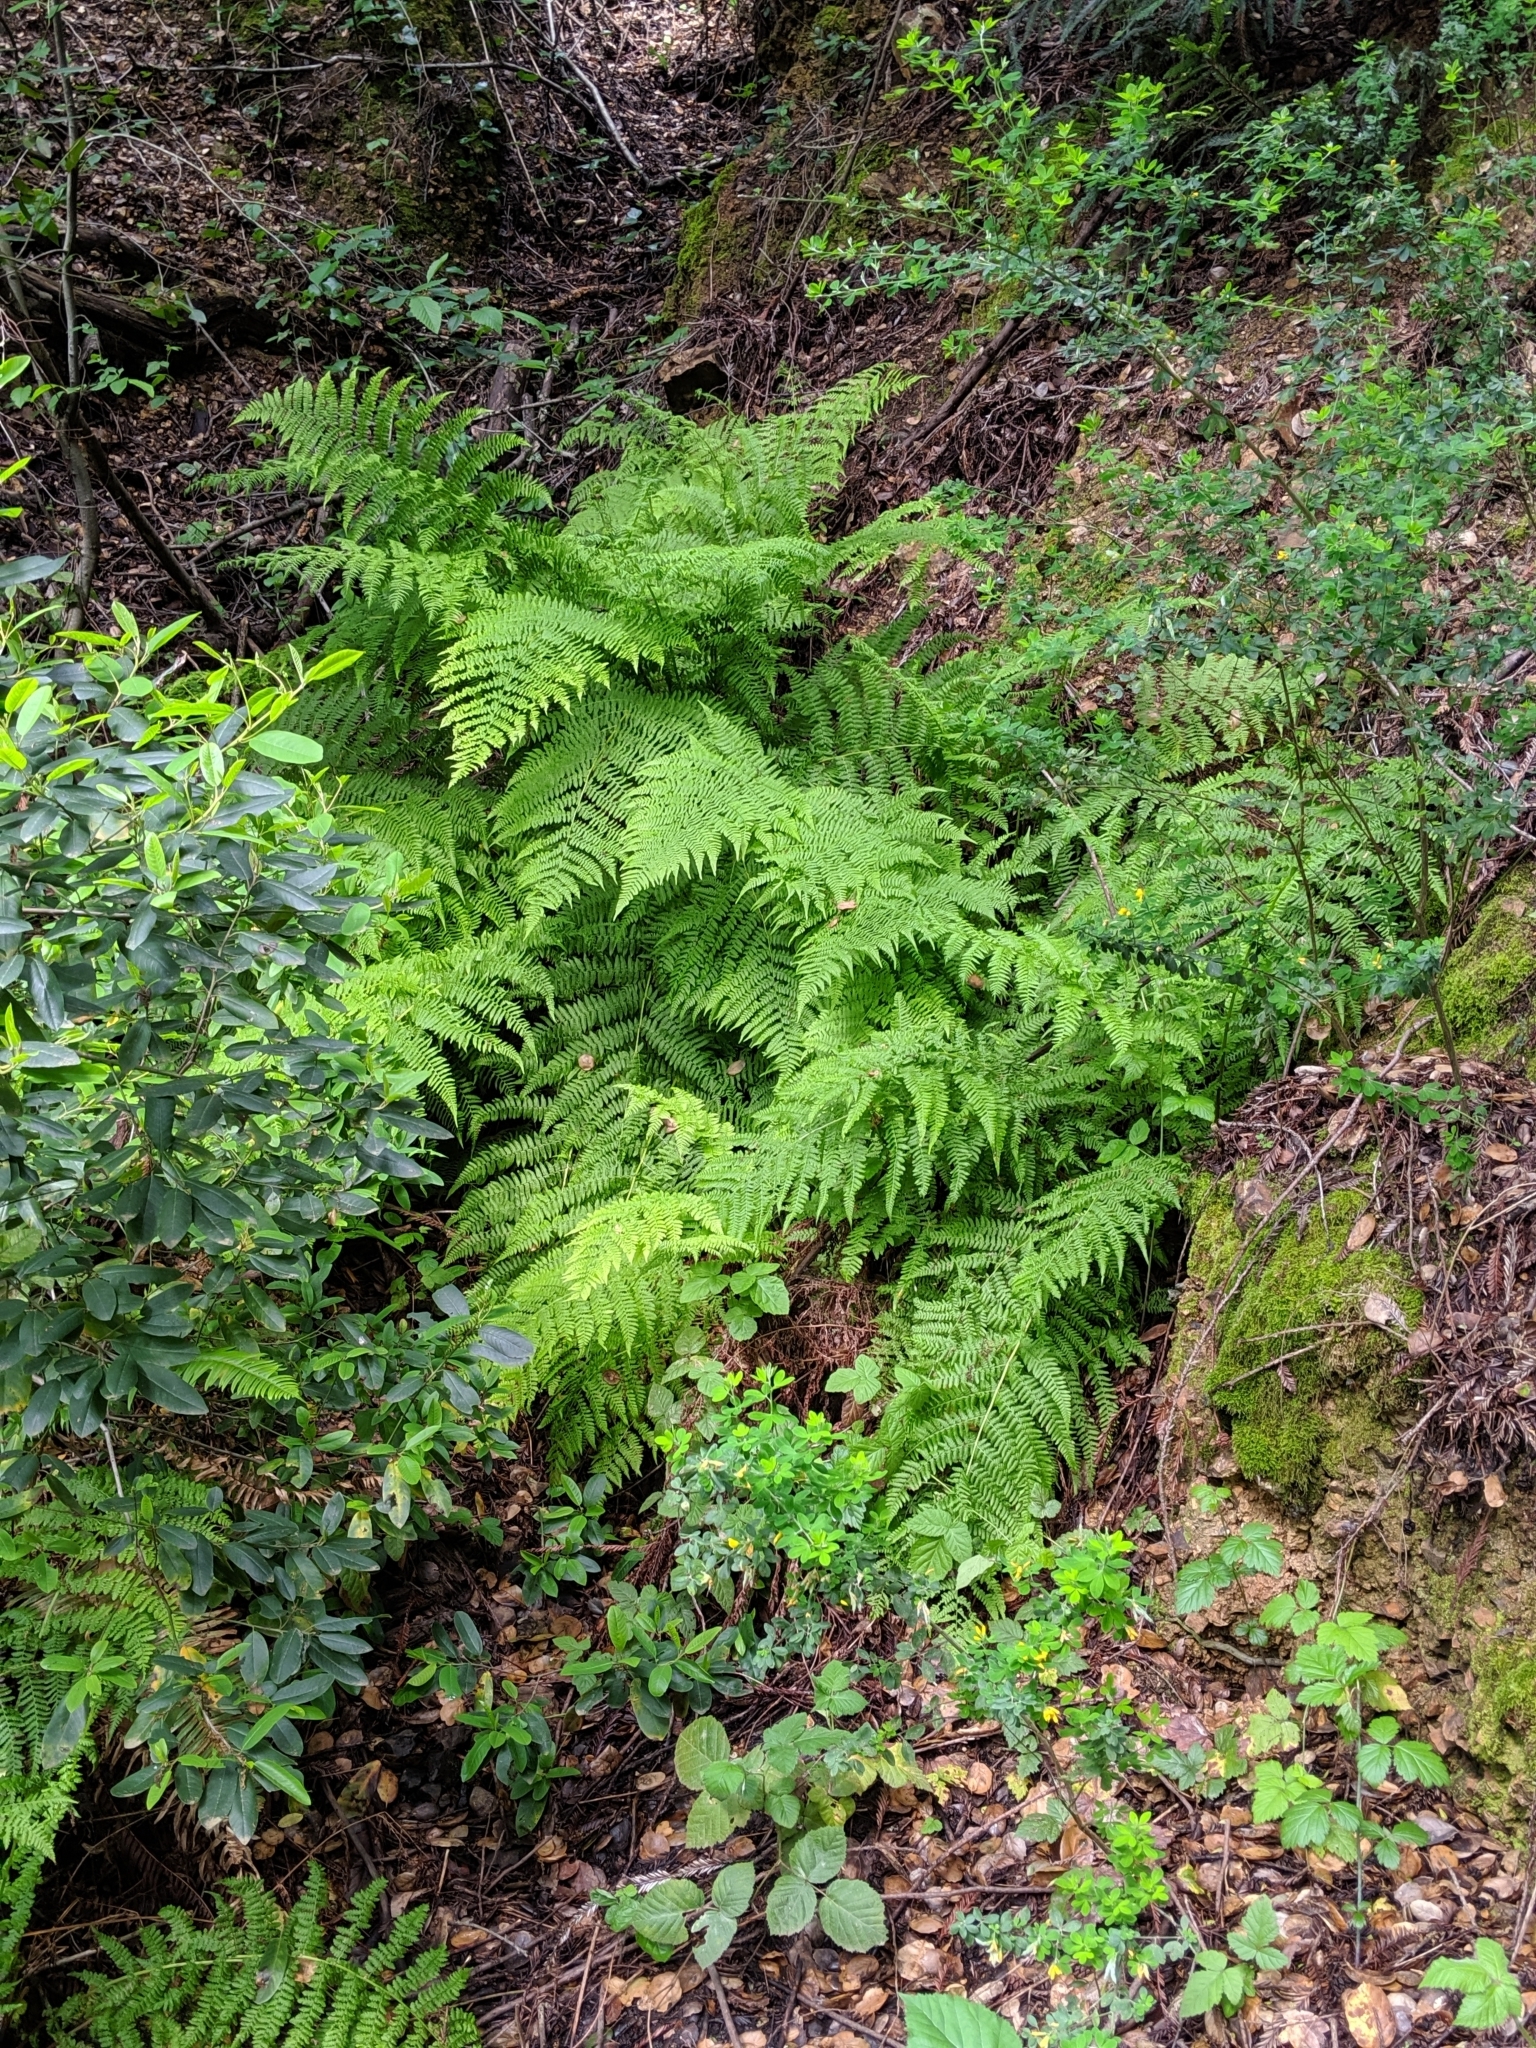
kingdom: Plantae
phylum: Tracheophyta
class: Polypodiopsida
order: Polypodiales
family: Athyriaceae
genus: Athyrium
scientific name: Athyrium filix-femina
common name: Lady fern
